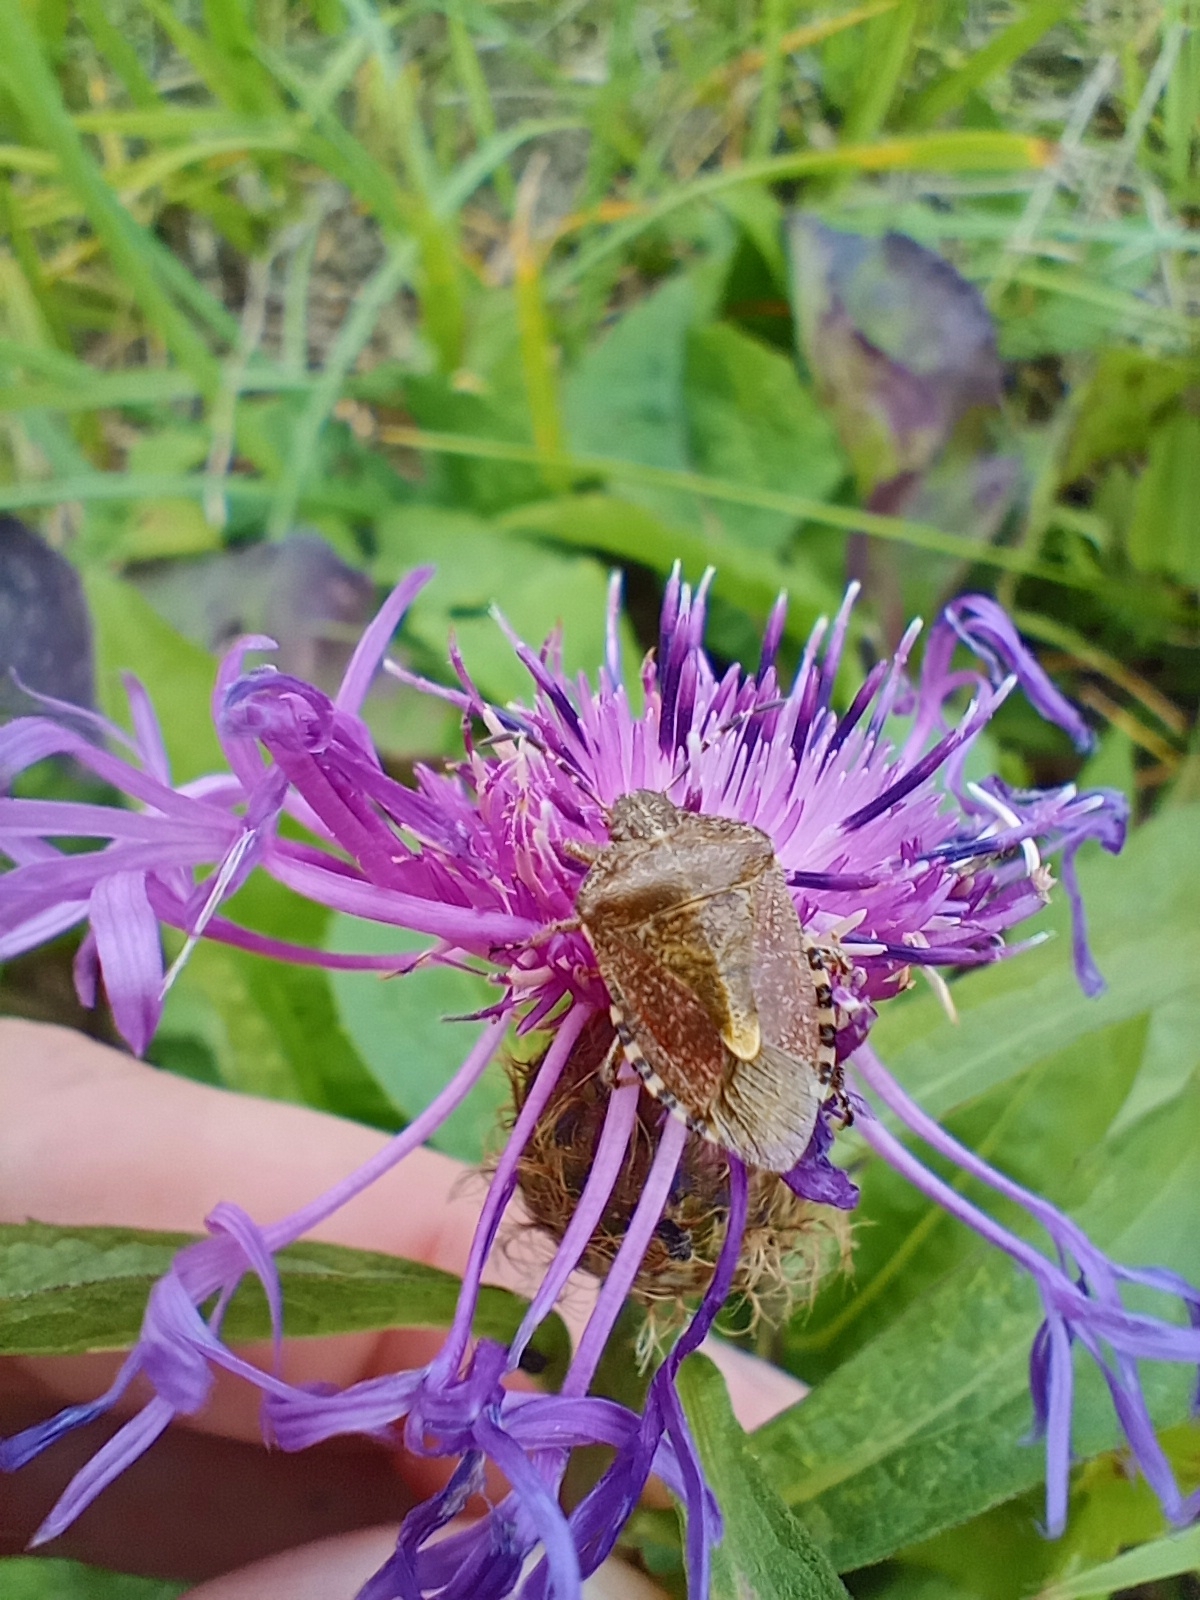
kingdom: Animalia
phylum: Arthropoda
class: Insecta
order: Hemiptera
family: Pentatomidae
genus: Dolycoris
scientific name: Dolycoris baccarum
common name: Sloe bug
